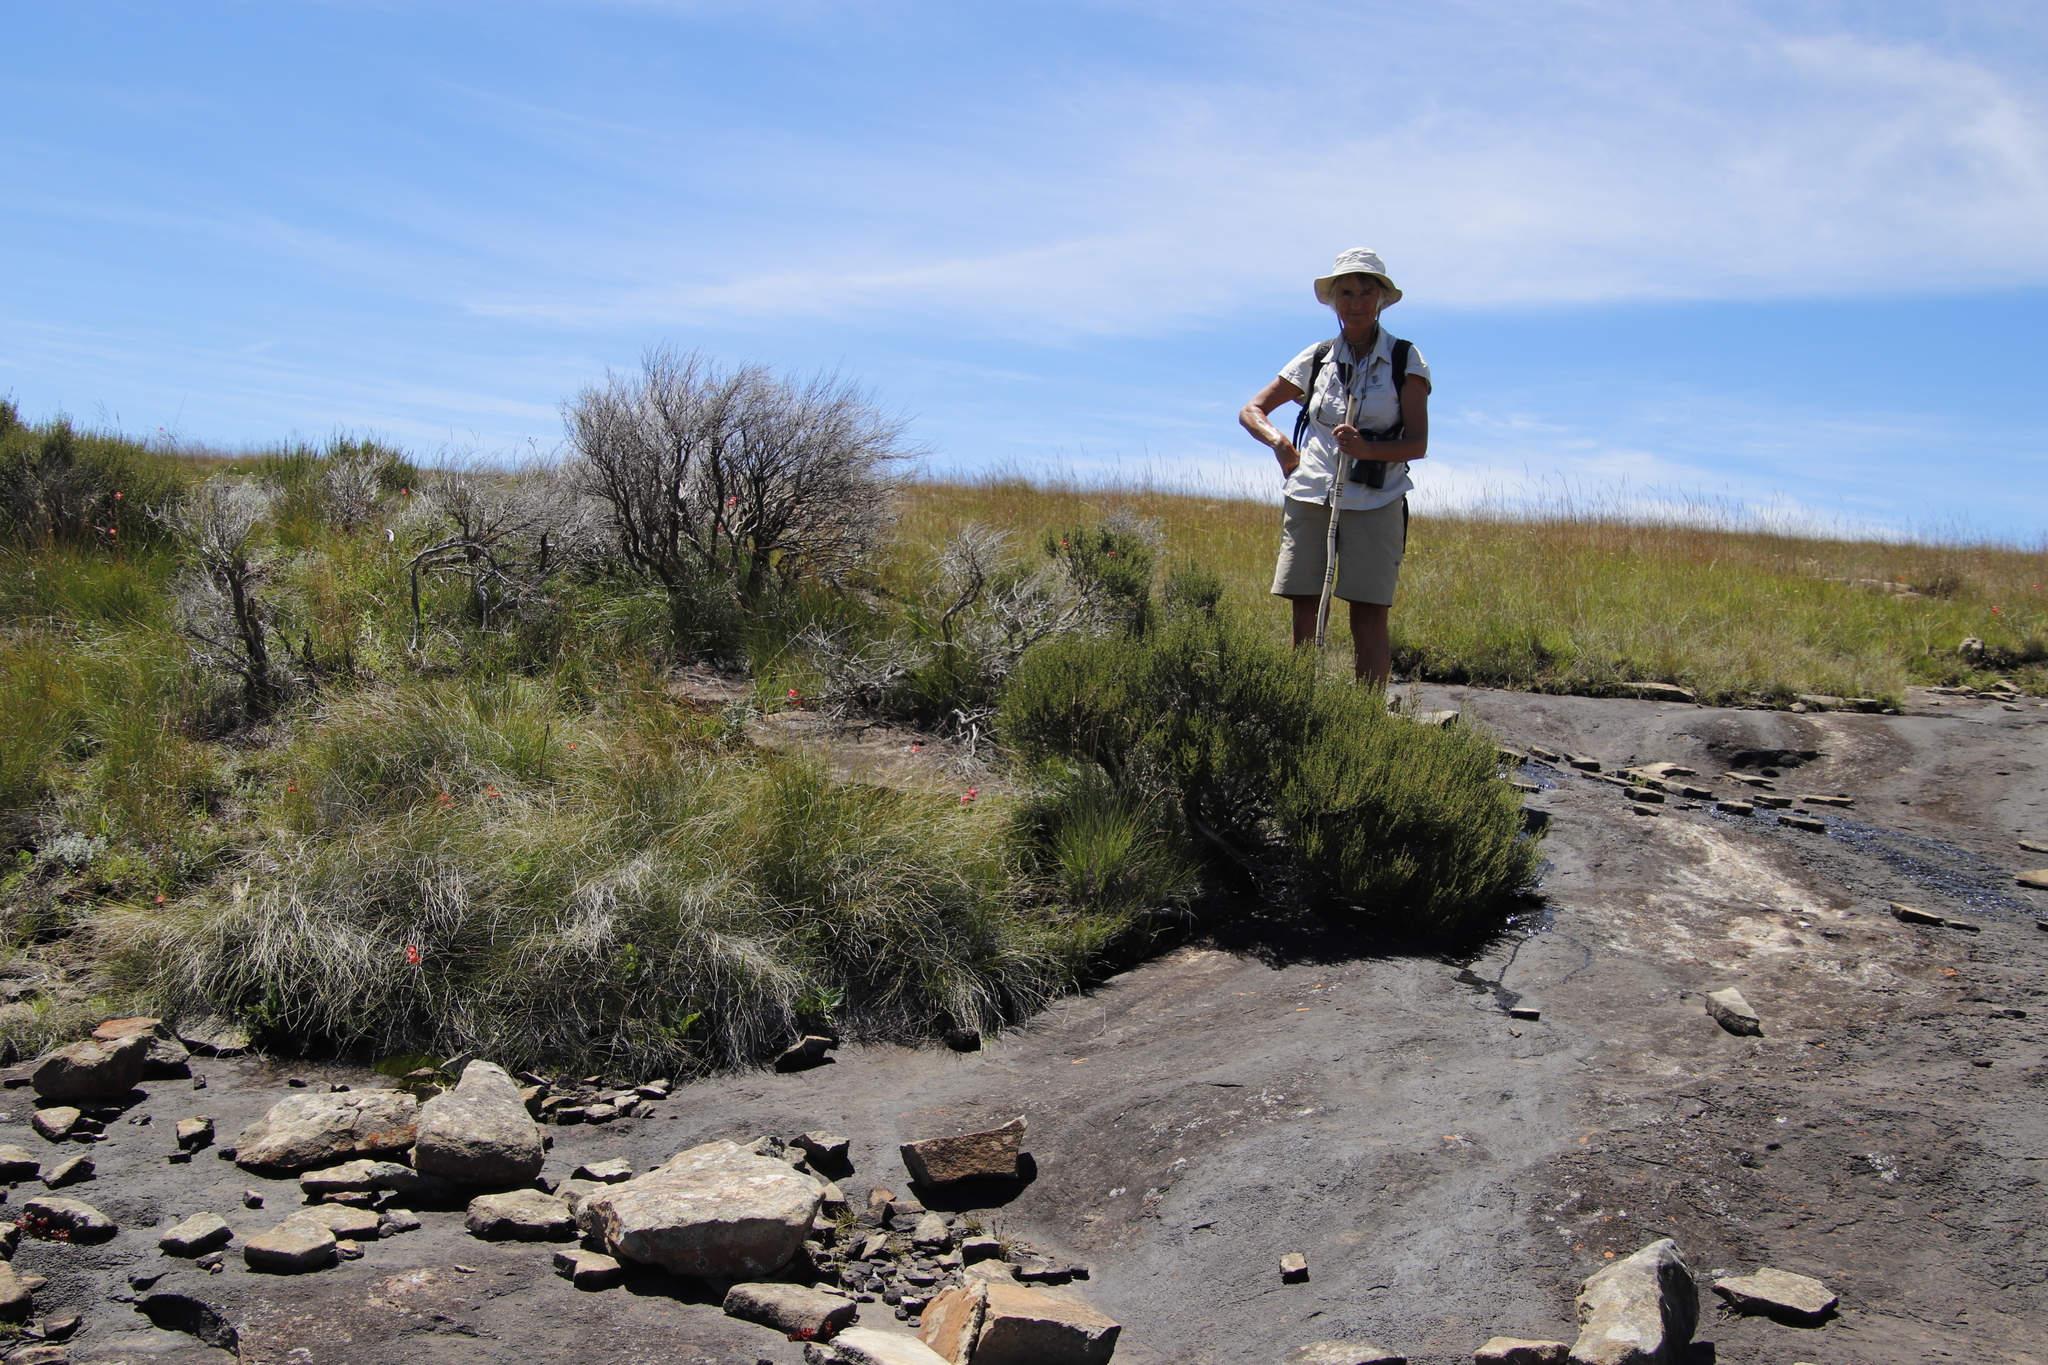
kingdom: Plantae
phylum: Tracheophyta
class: Magnoliopsida
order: Rosales
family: Rosaceae
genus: Cliffortia
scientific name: Cliffortia linearifolia
